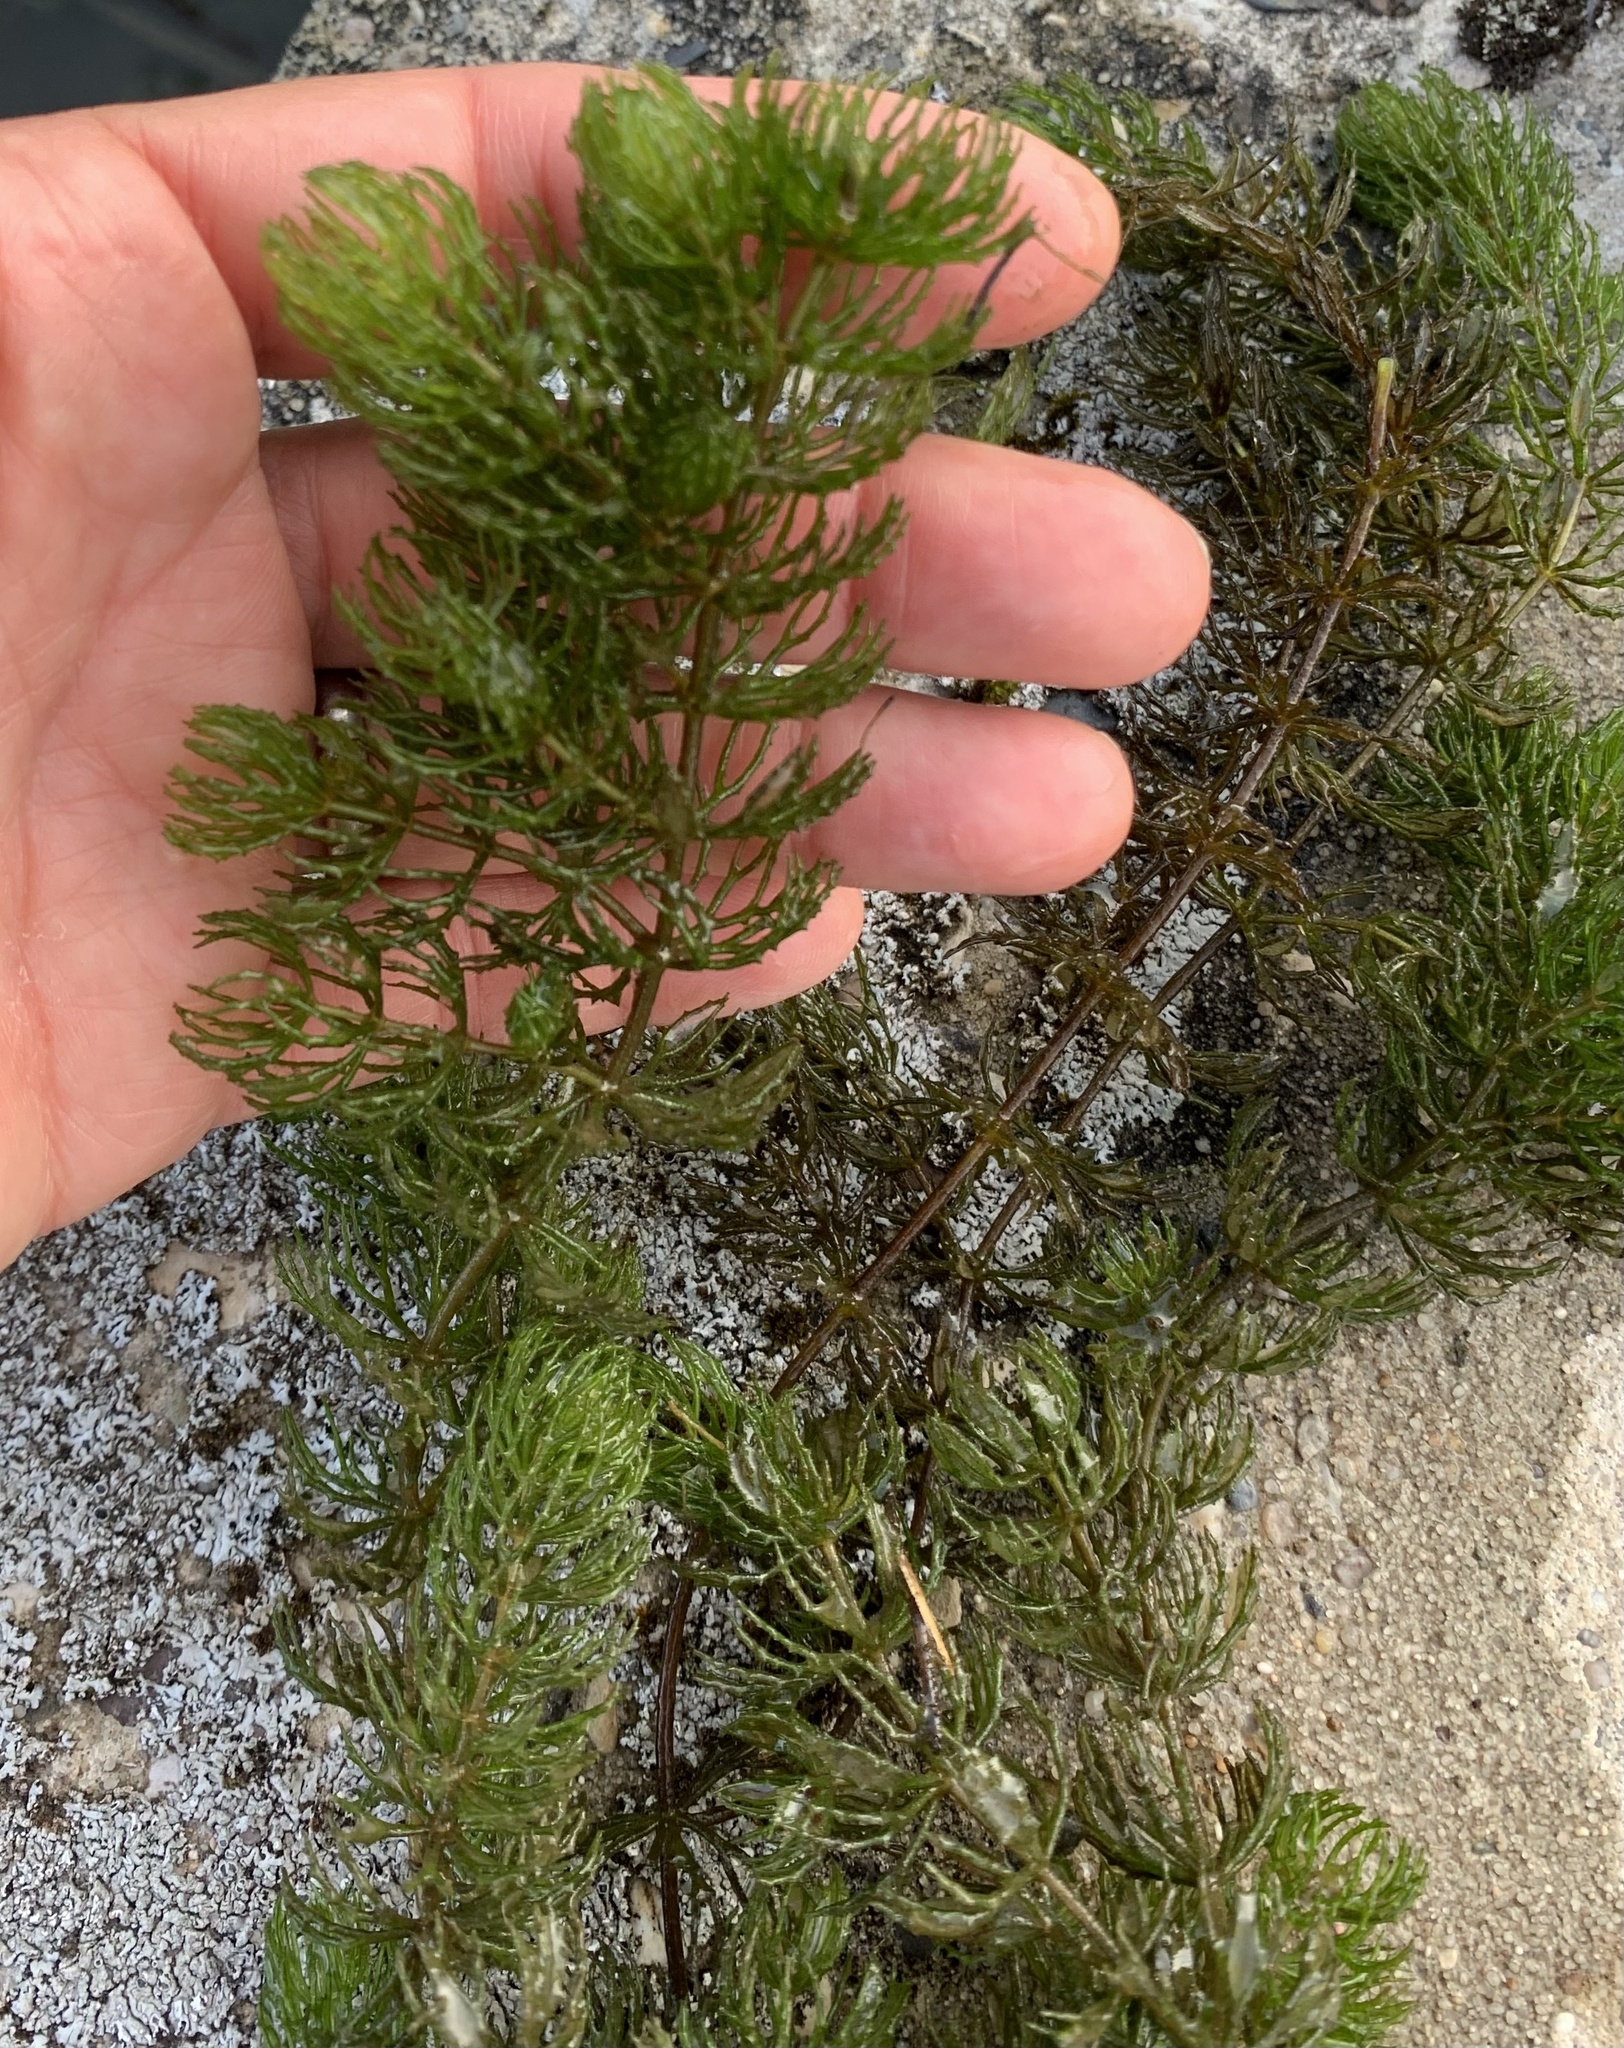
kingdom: Plantae
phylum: Tracheophyta
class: Magnoliopsida
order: Ceratophyllales
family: Ceratophyllaceae
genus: Ceratophyllum
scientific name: Ceratophyllum demersum
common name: Rigid hornwort
